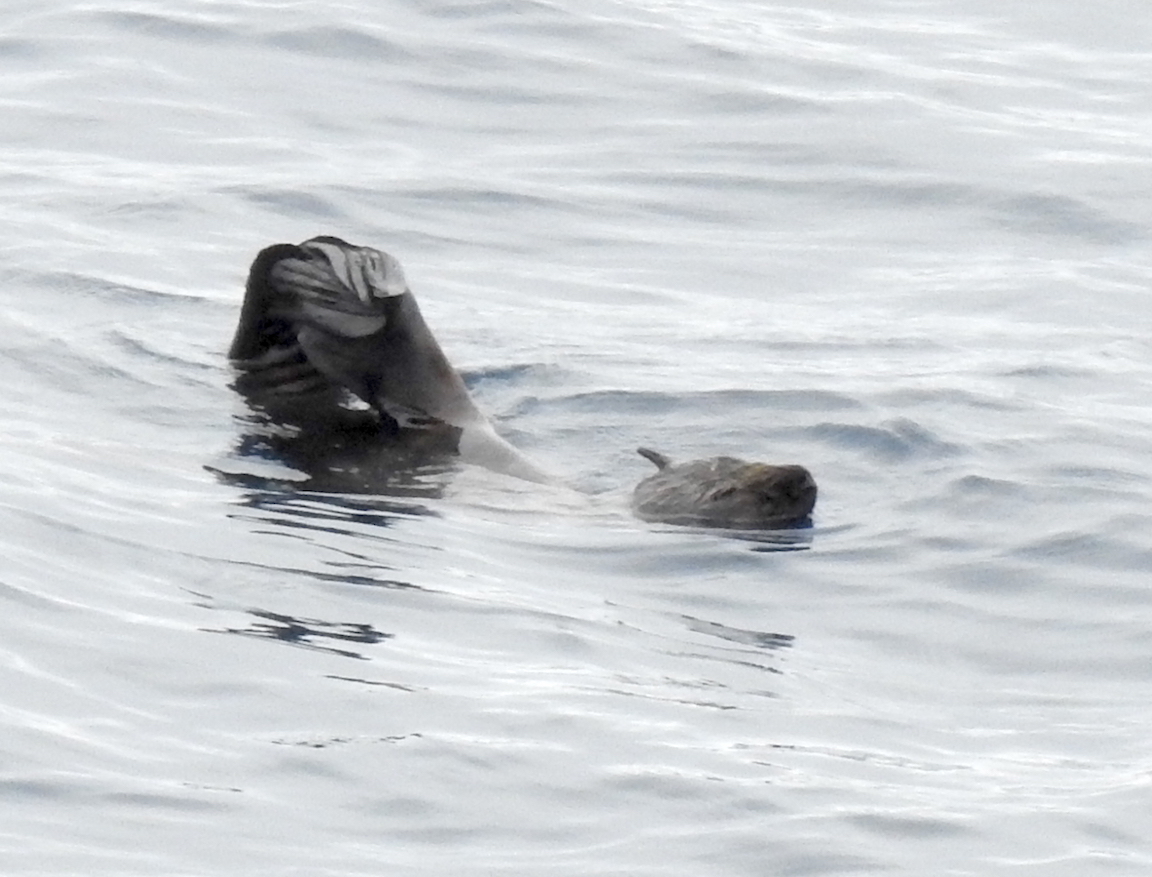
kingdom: Animalia
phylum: Chordata
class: Mammalia
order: Carnivora
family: Otariidae
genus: Arctocephalus
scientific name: Arctocephalus philippii
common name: Juan fernández fur seal
